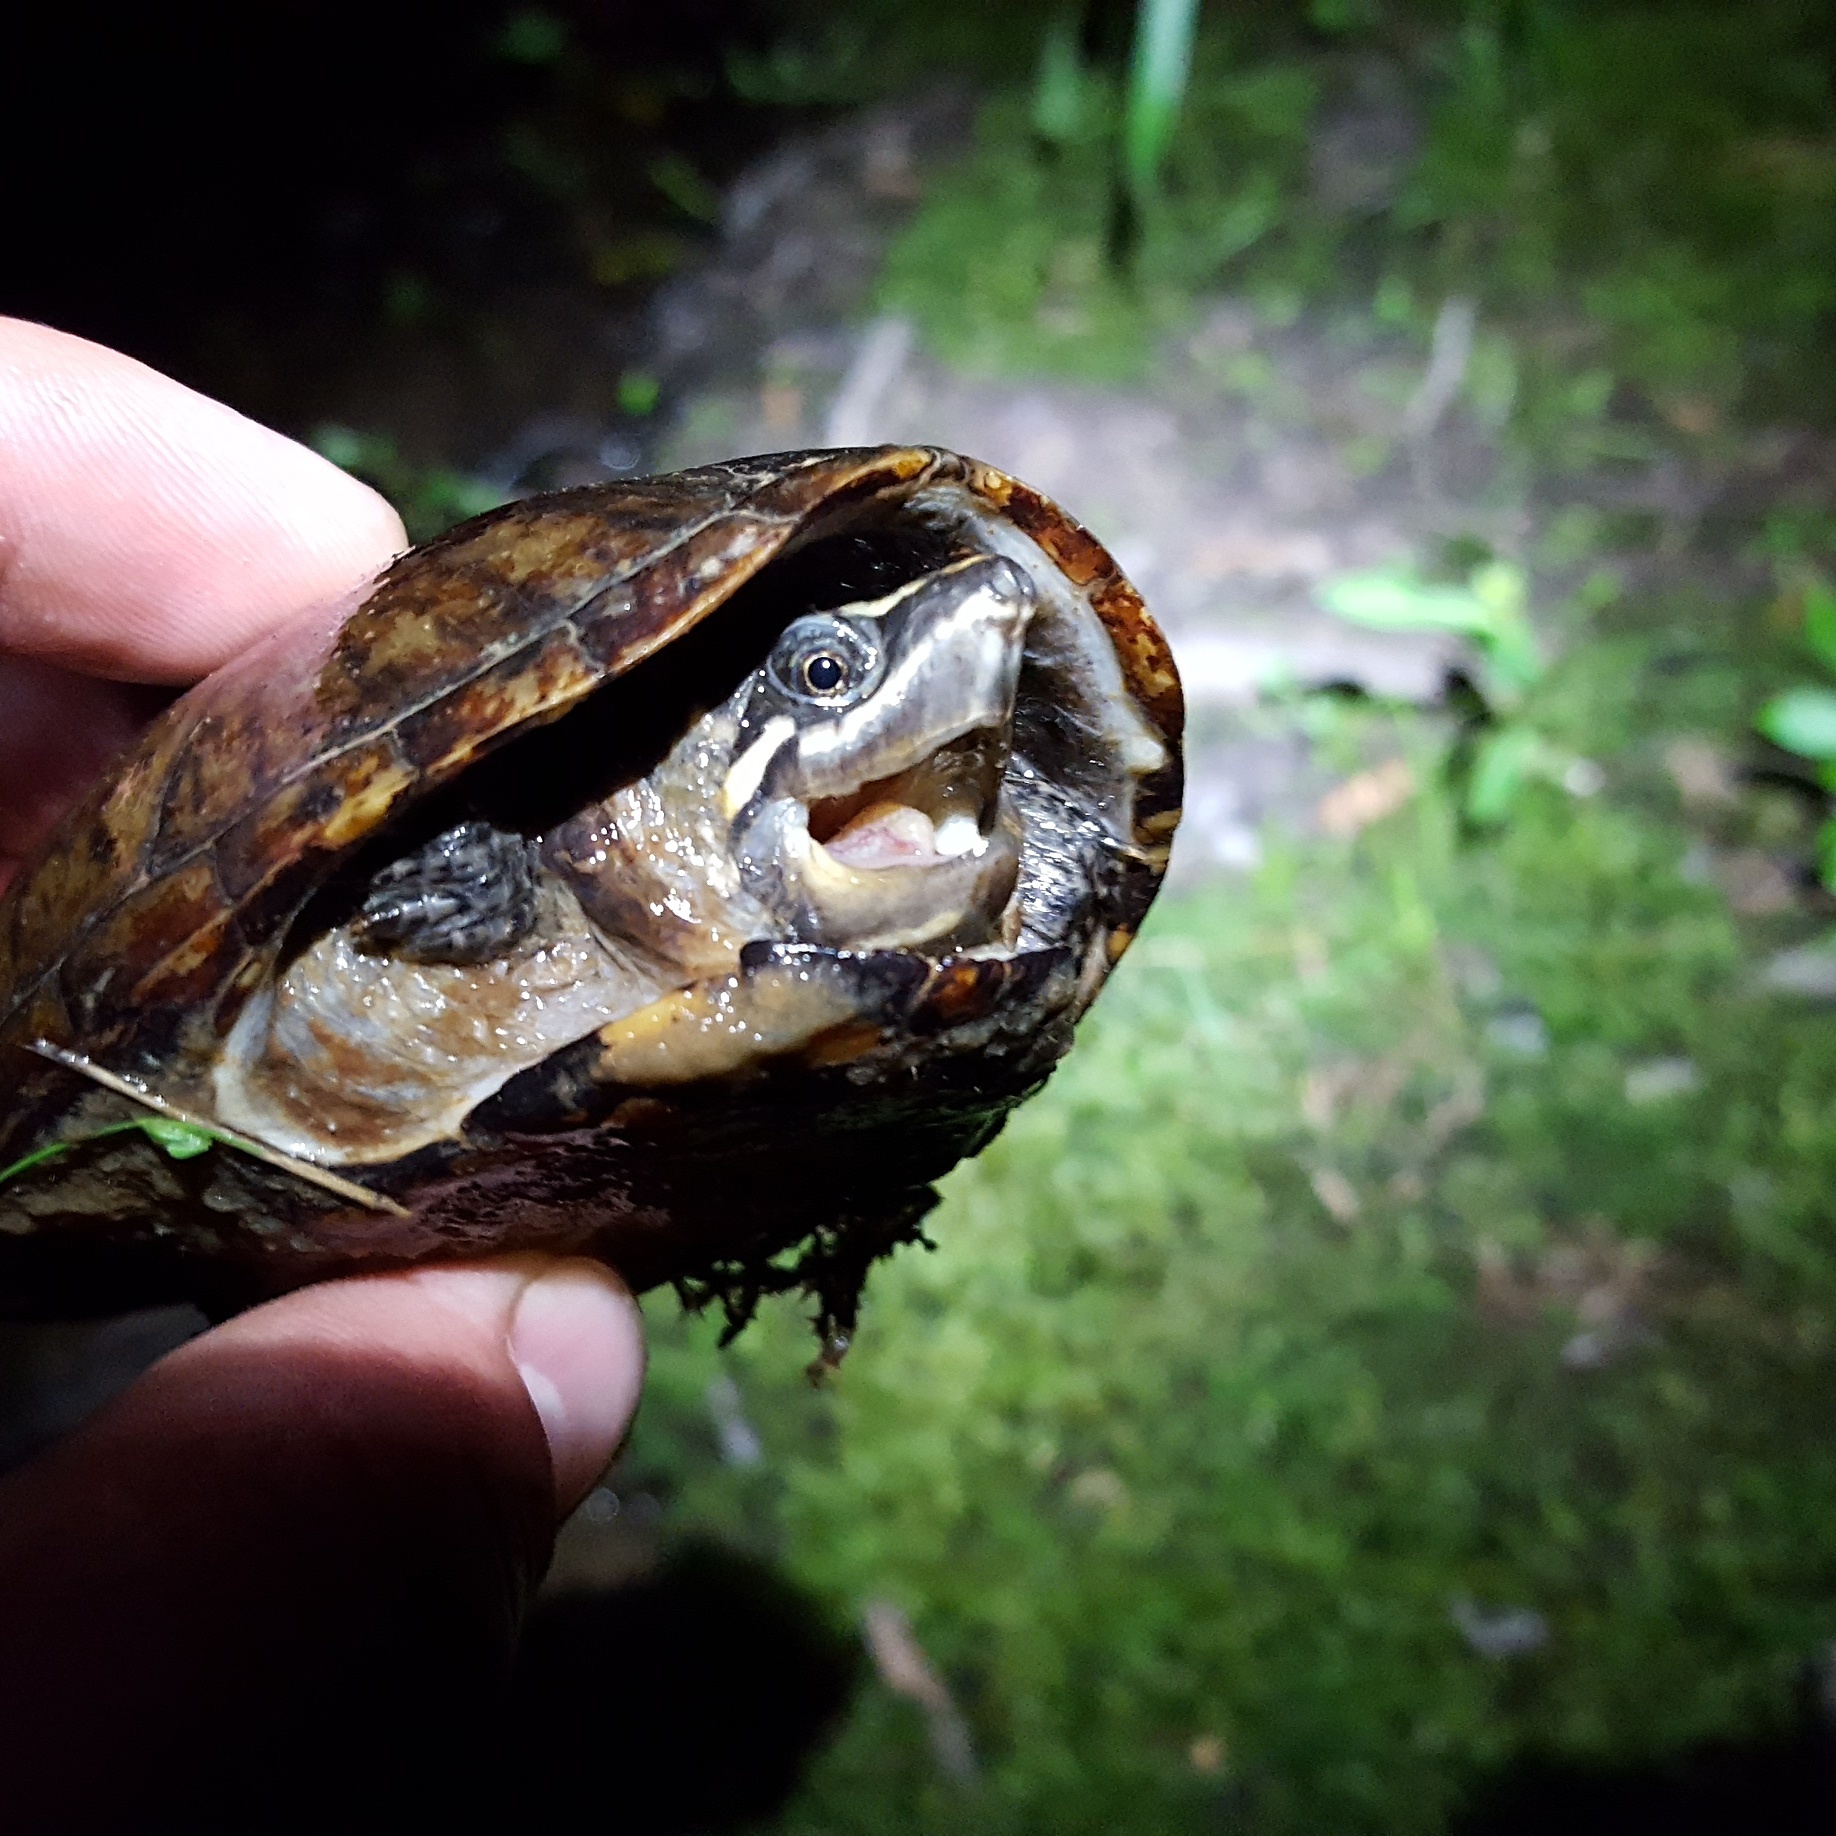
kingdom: Animalia
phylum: Chordata
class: Testudines
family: Kinosternidae
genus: Sternotherus
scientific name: Sternotherus odoratus
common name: Common musk turtle
